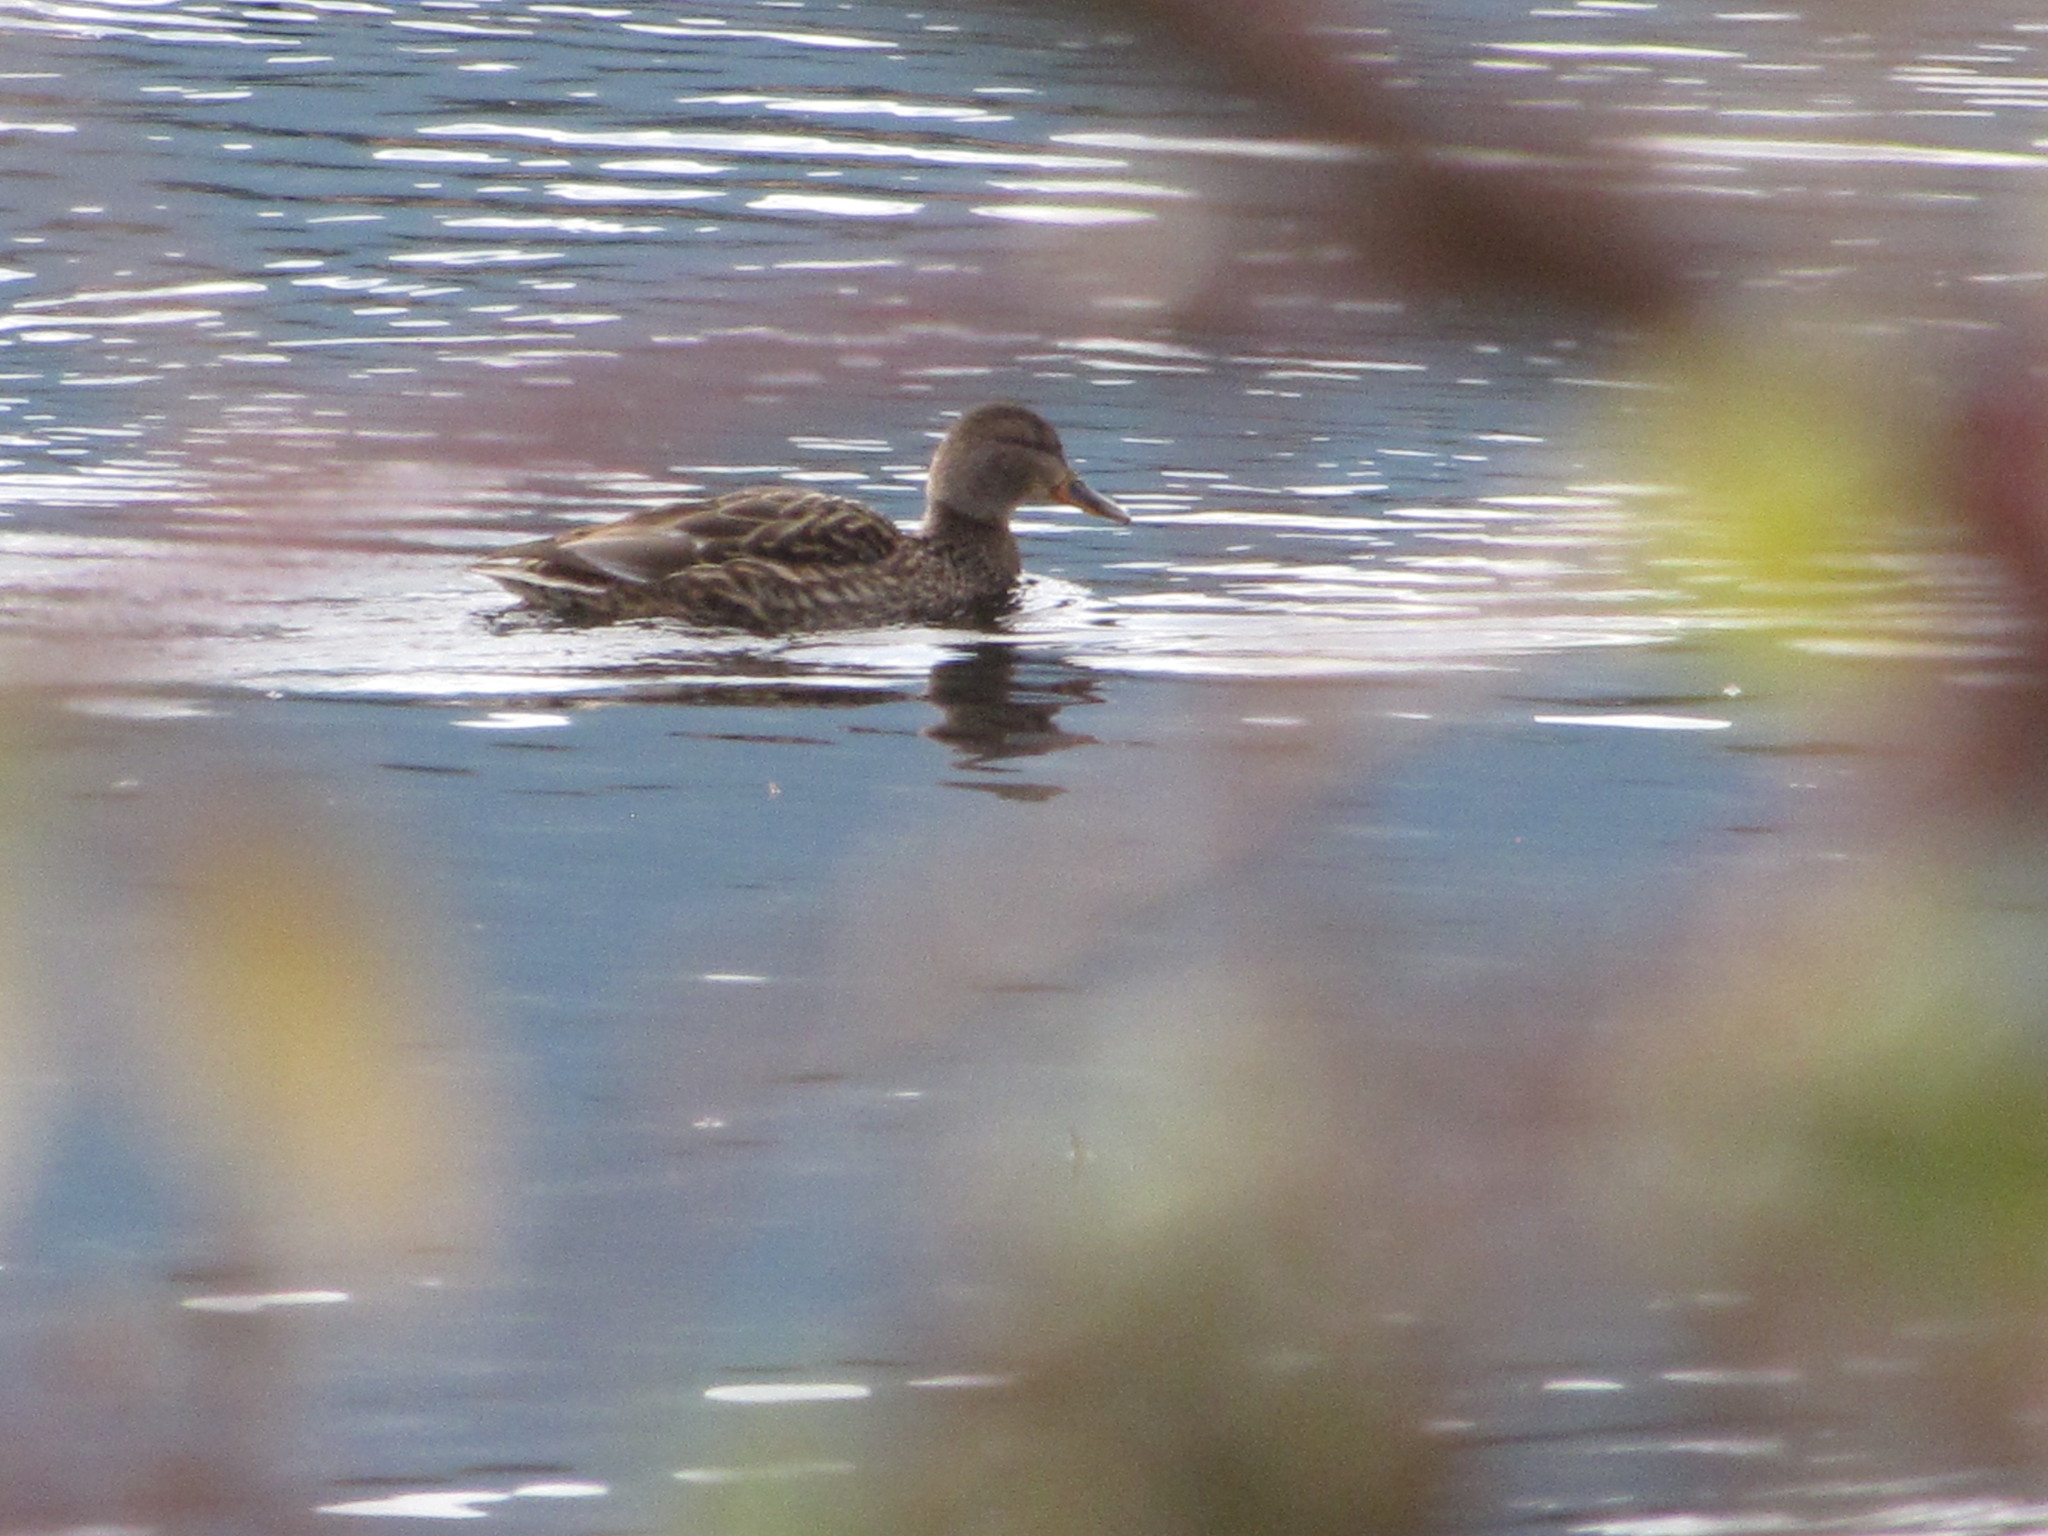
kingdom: Animalia
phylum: Chordata
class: Aves
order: Anseriformes
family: Anatidae
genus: Anas
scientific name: Anas platyrhynchos
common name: Mallard
